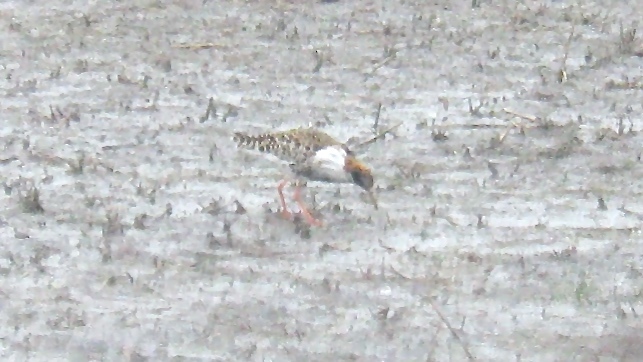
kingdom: Animalia
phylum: Chordata
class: Aves
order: Charadriiformes
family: Scolopacidae
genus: Calidris
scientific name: Calidris pugnax
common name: Ruff
